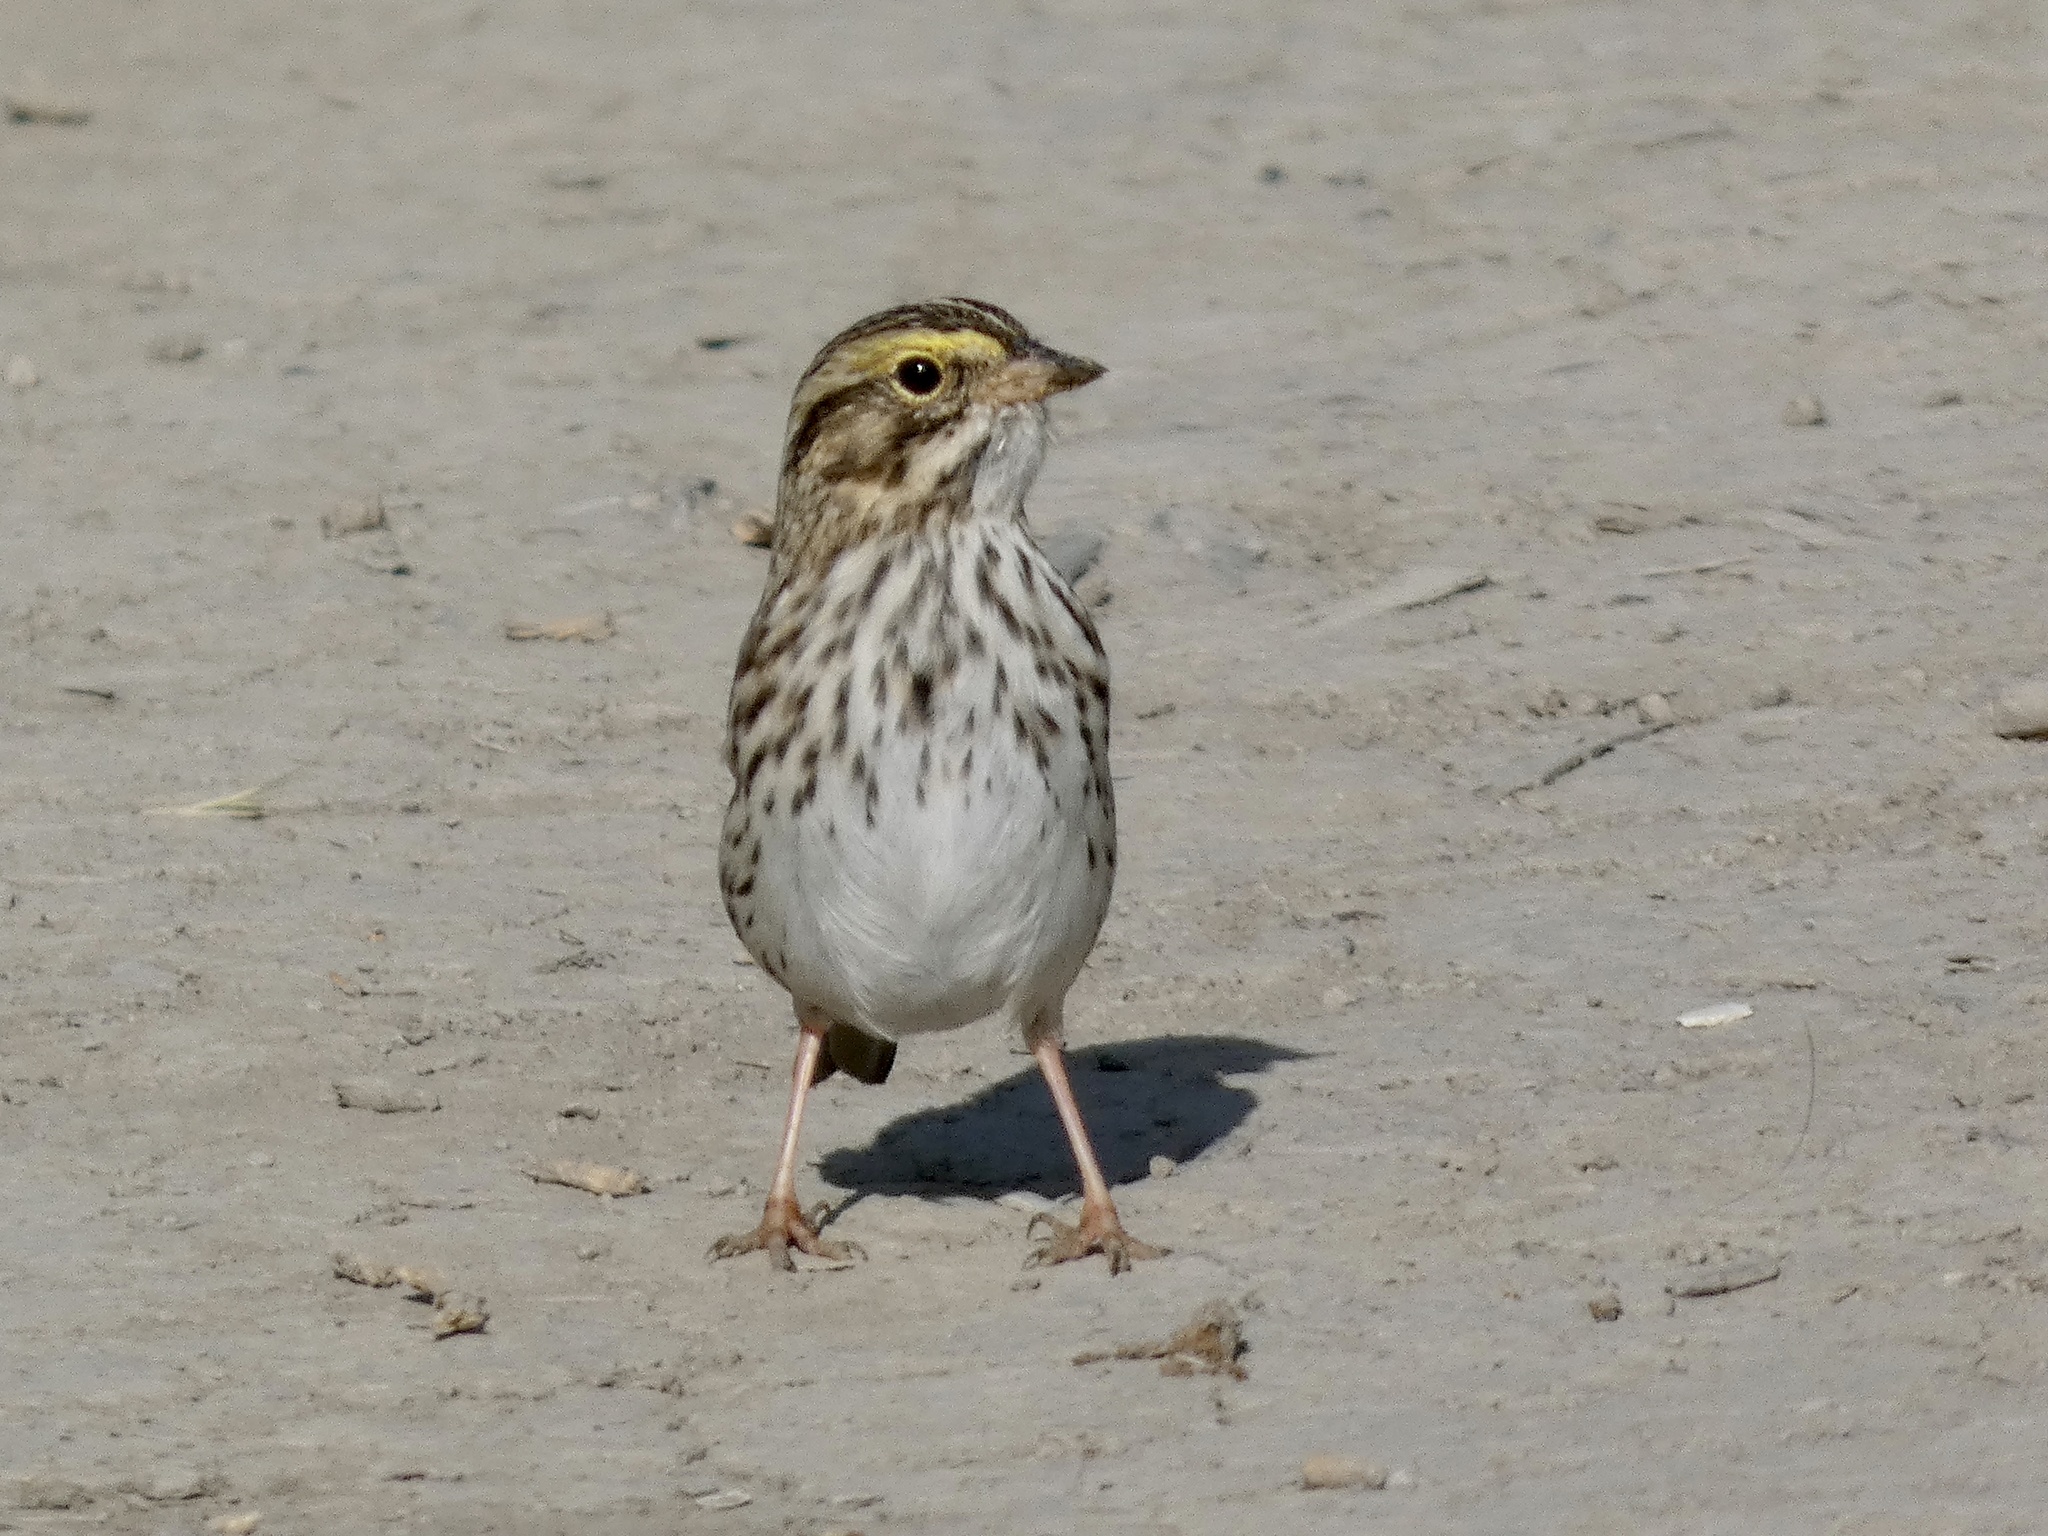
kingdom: Animalia
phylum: Chordata
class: Aves
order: Passeriformes
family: Passerellidae
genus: Passerculus
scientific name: Passerculus sandwichensis
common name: Savannah sparrow
